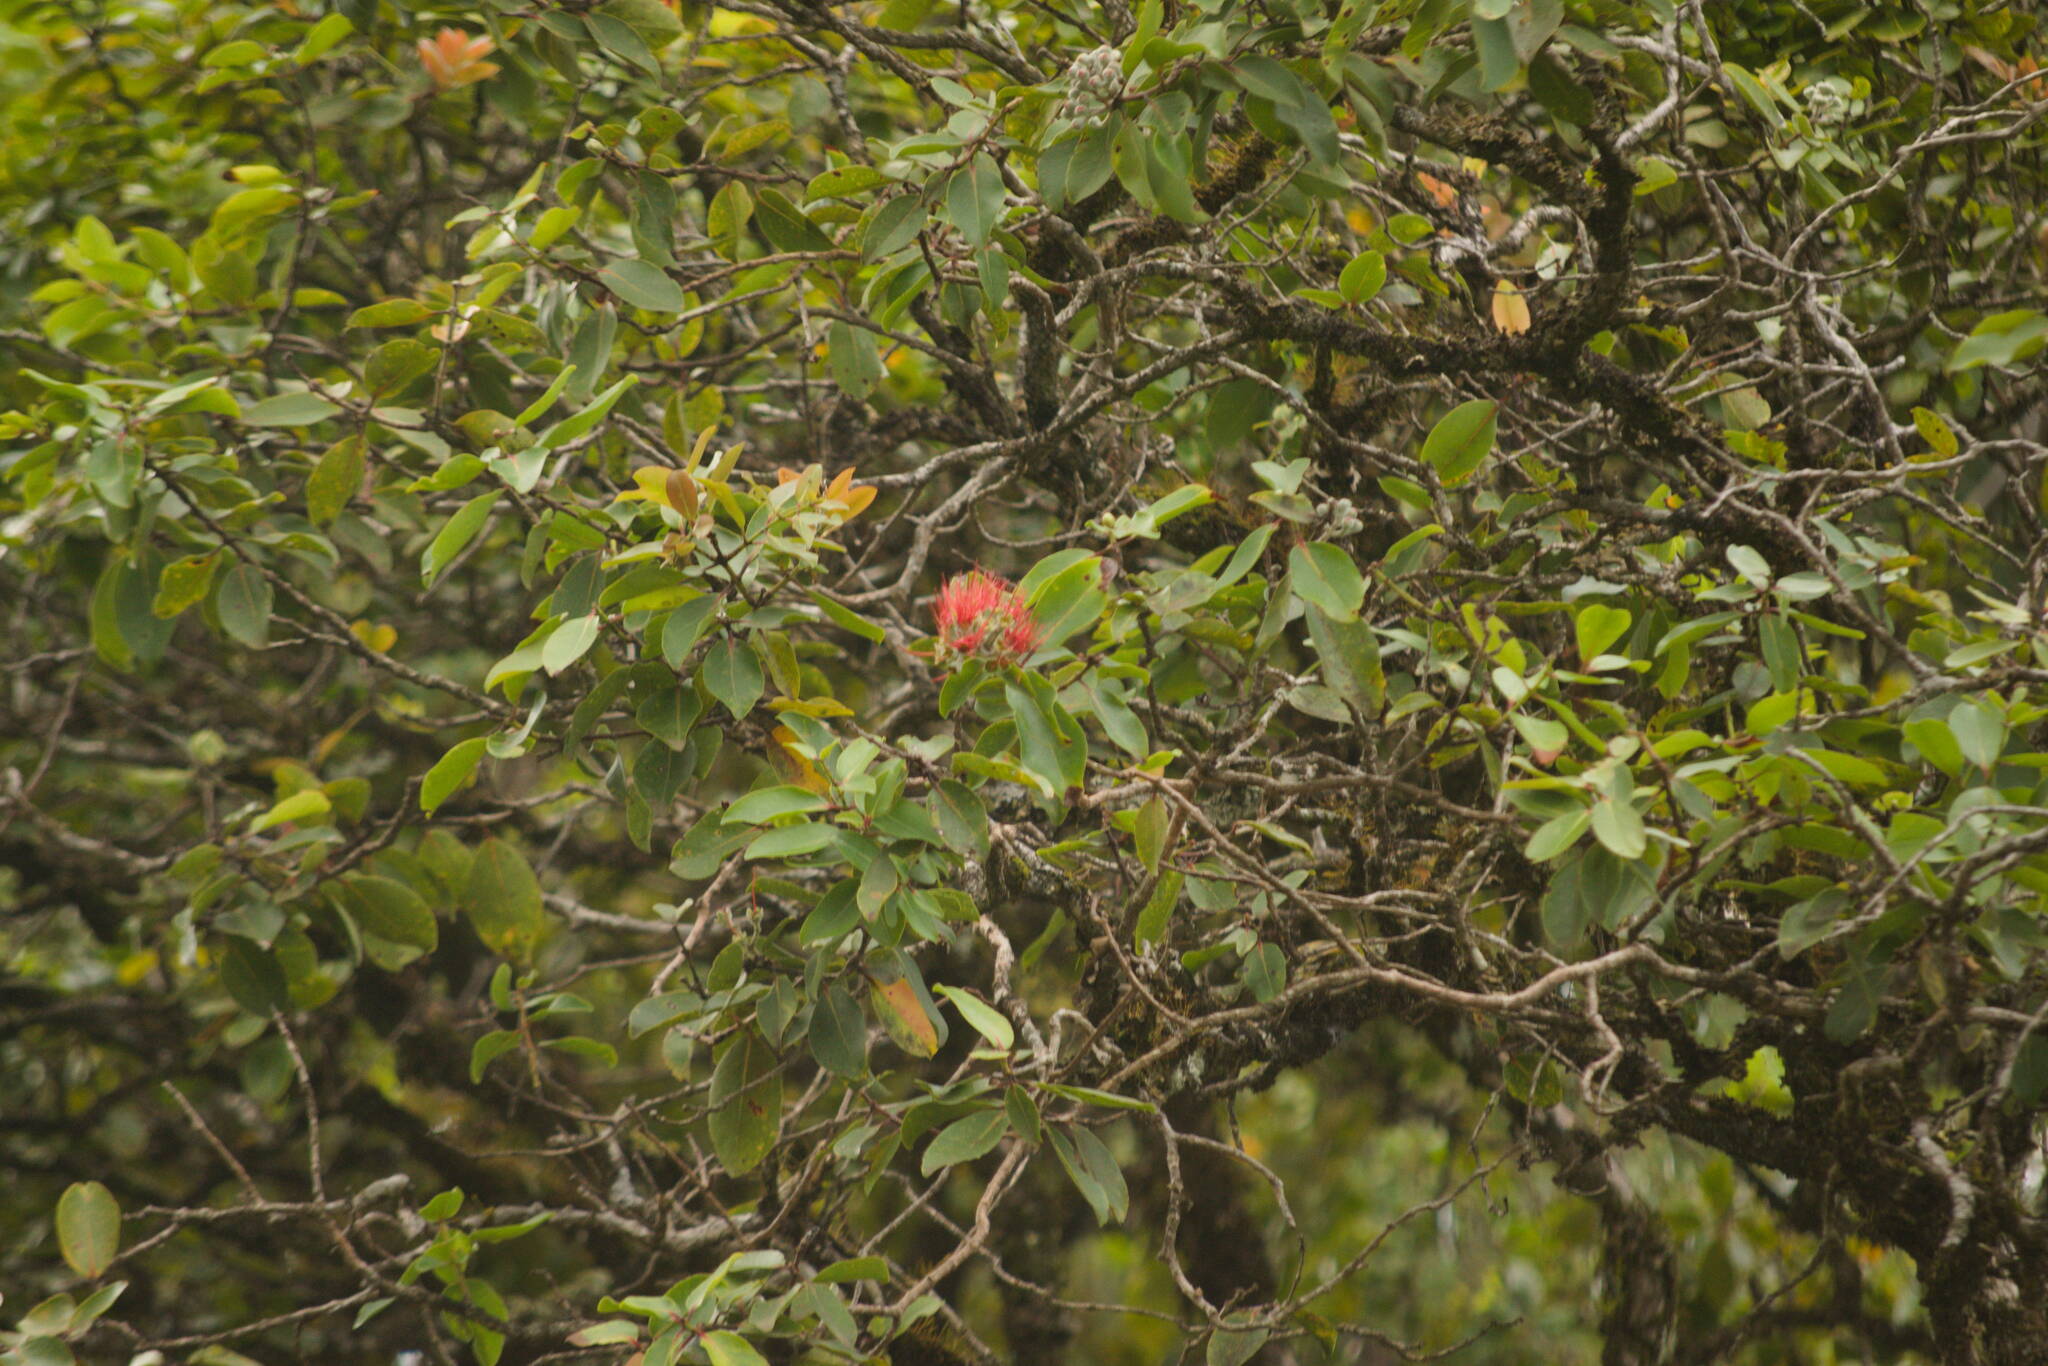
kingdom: Plantae
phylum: Tracheophyta
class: Magnoliopsida
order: Myrtales
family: Myrtaceae
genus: Metrosideros
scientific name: Metrosideros polymorpha
